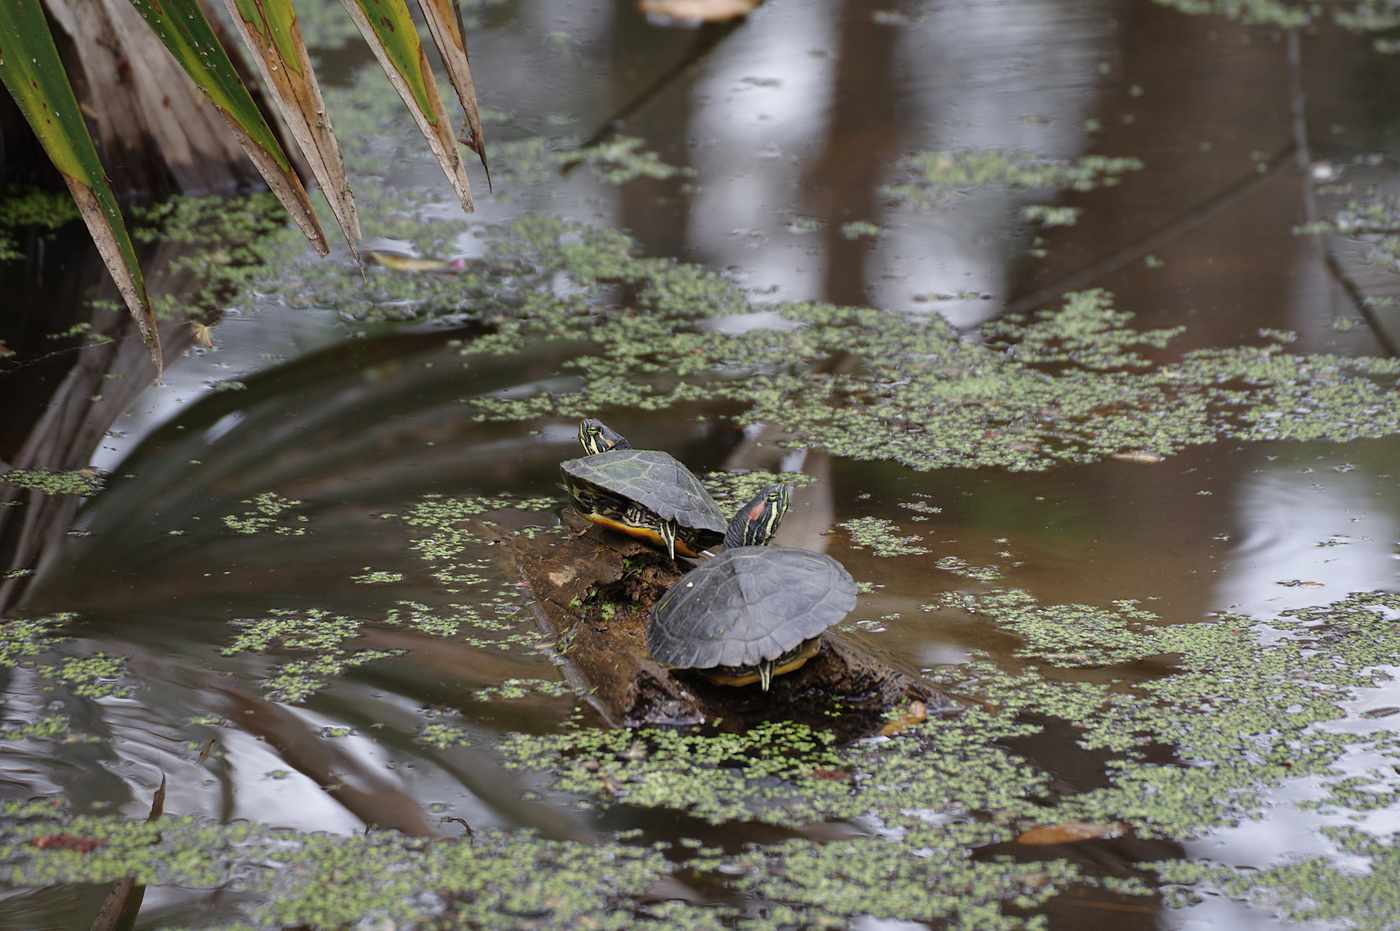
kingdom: Animalia
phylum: Chordata
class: Testudines
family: Emydidae
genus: Trachemys
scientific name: Trachemys scripta
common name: Slider
